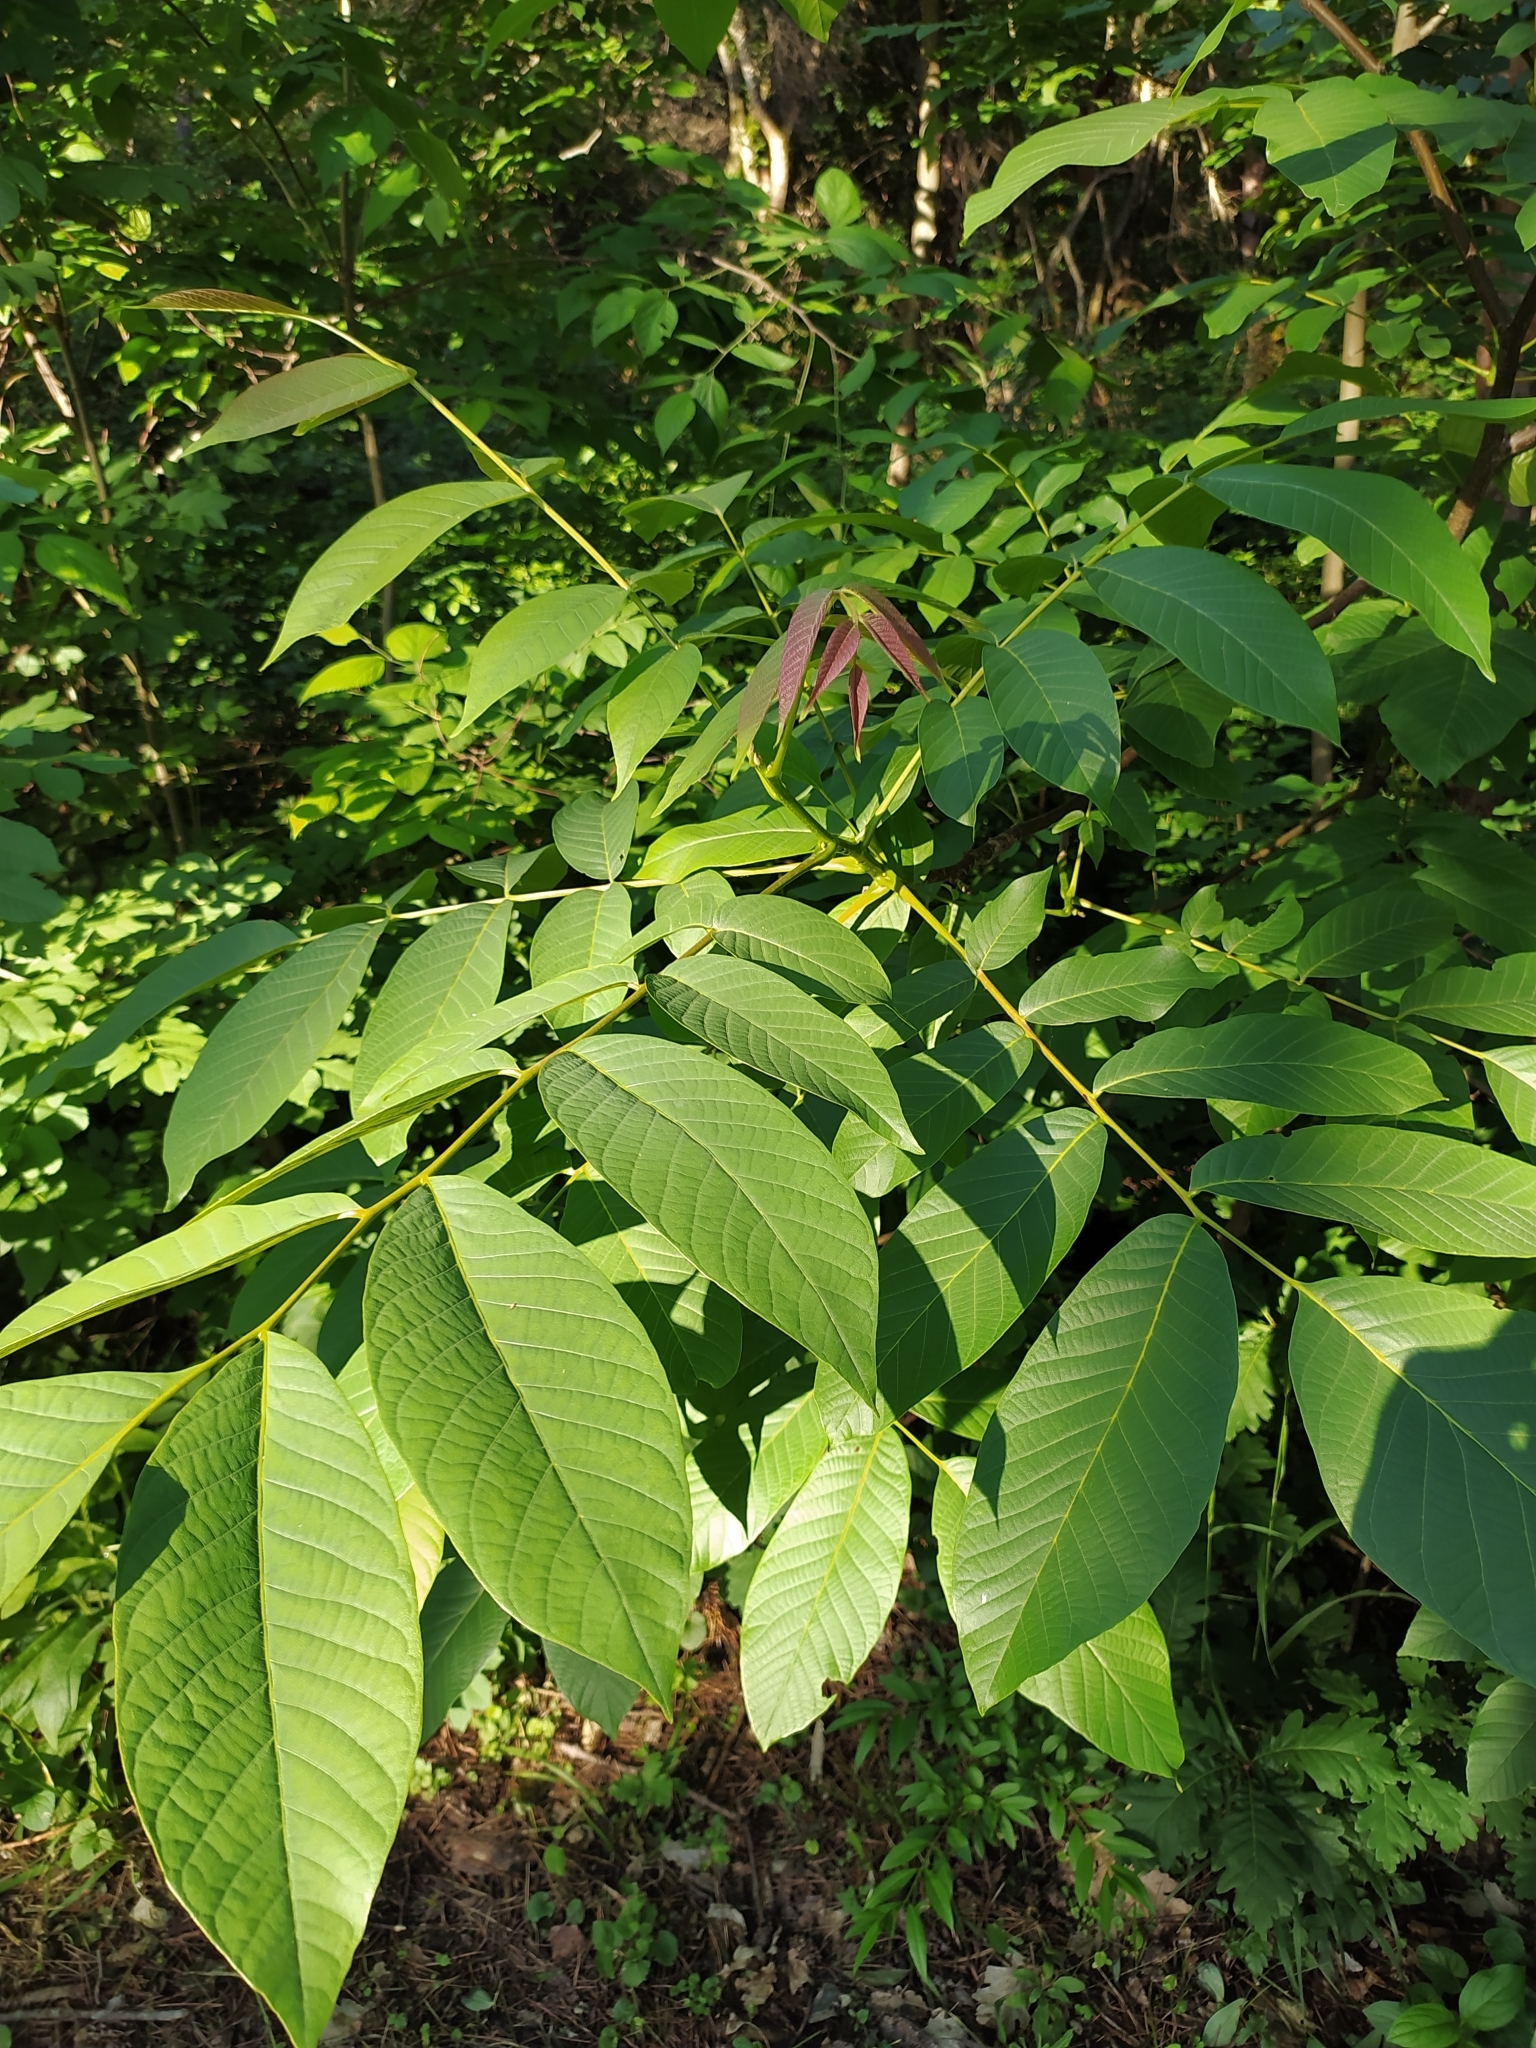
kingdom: Plantae
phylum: Tracheophyta
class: Magnoliopsida
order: Fagales
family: Juglandaceae
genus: Juglans
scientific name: Juglans regia
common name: Walnut
